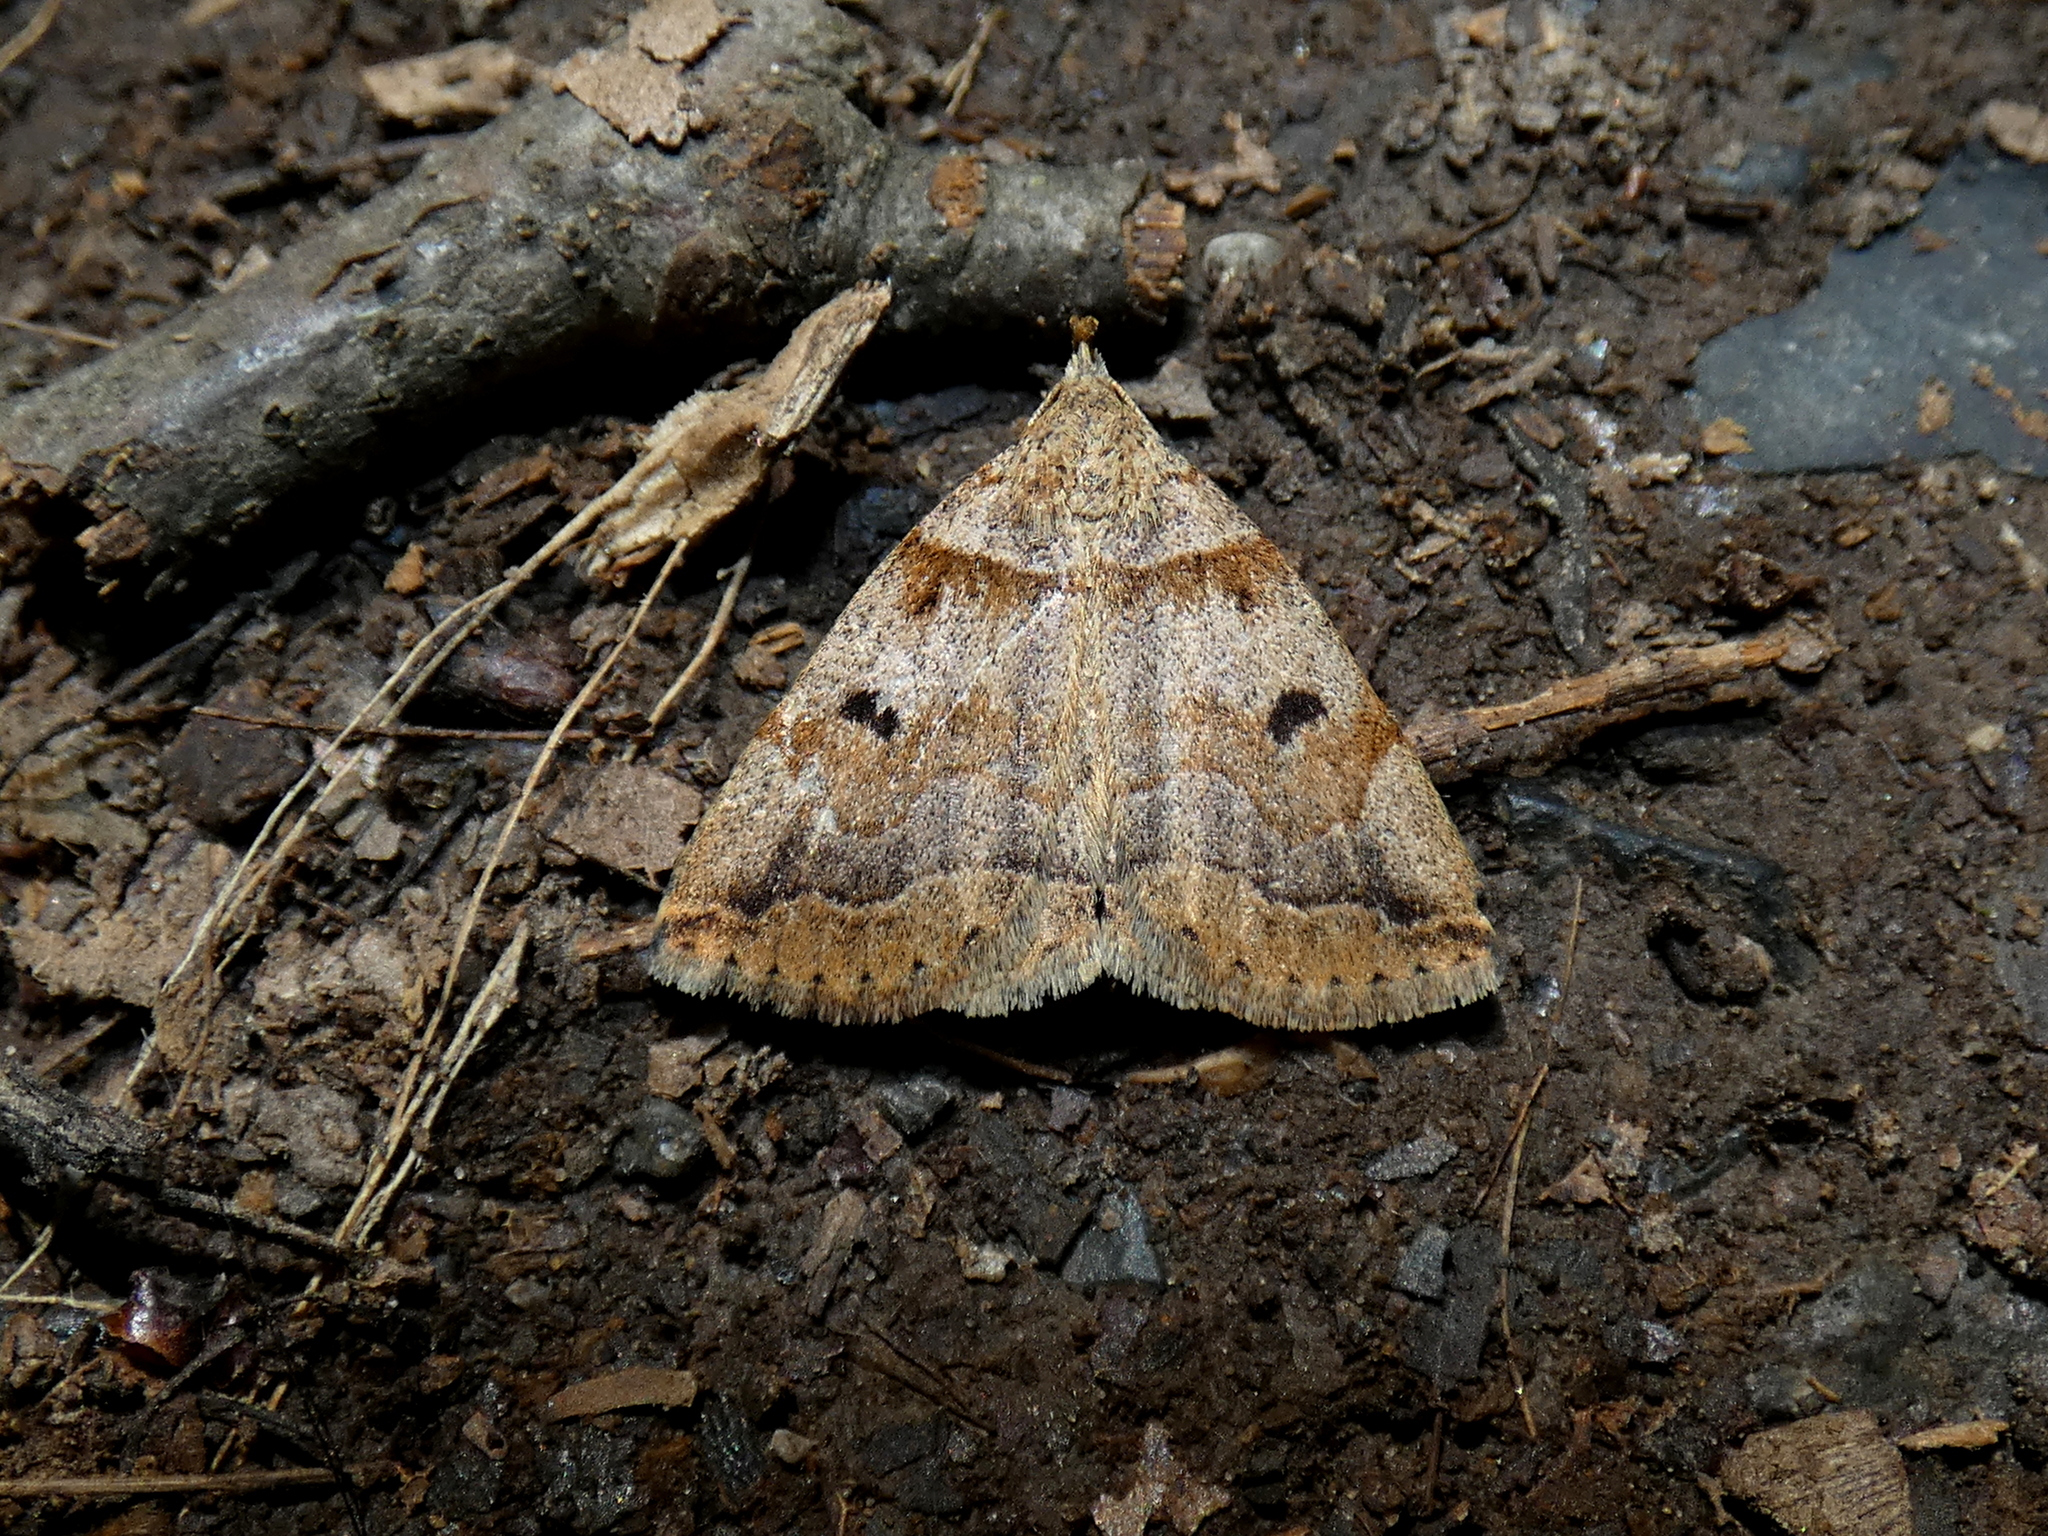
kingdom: Animalia
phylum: Arthropoda
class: Insecta
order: Lepidoptera
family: Erebidae
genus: Zanclognatha
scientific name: Zanclognatha laevigata
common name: Variable fan-foot
